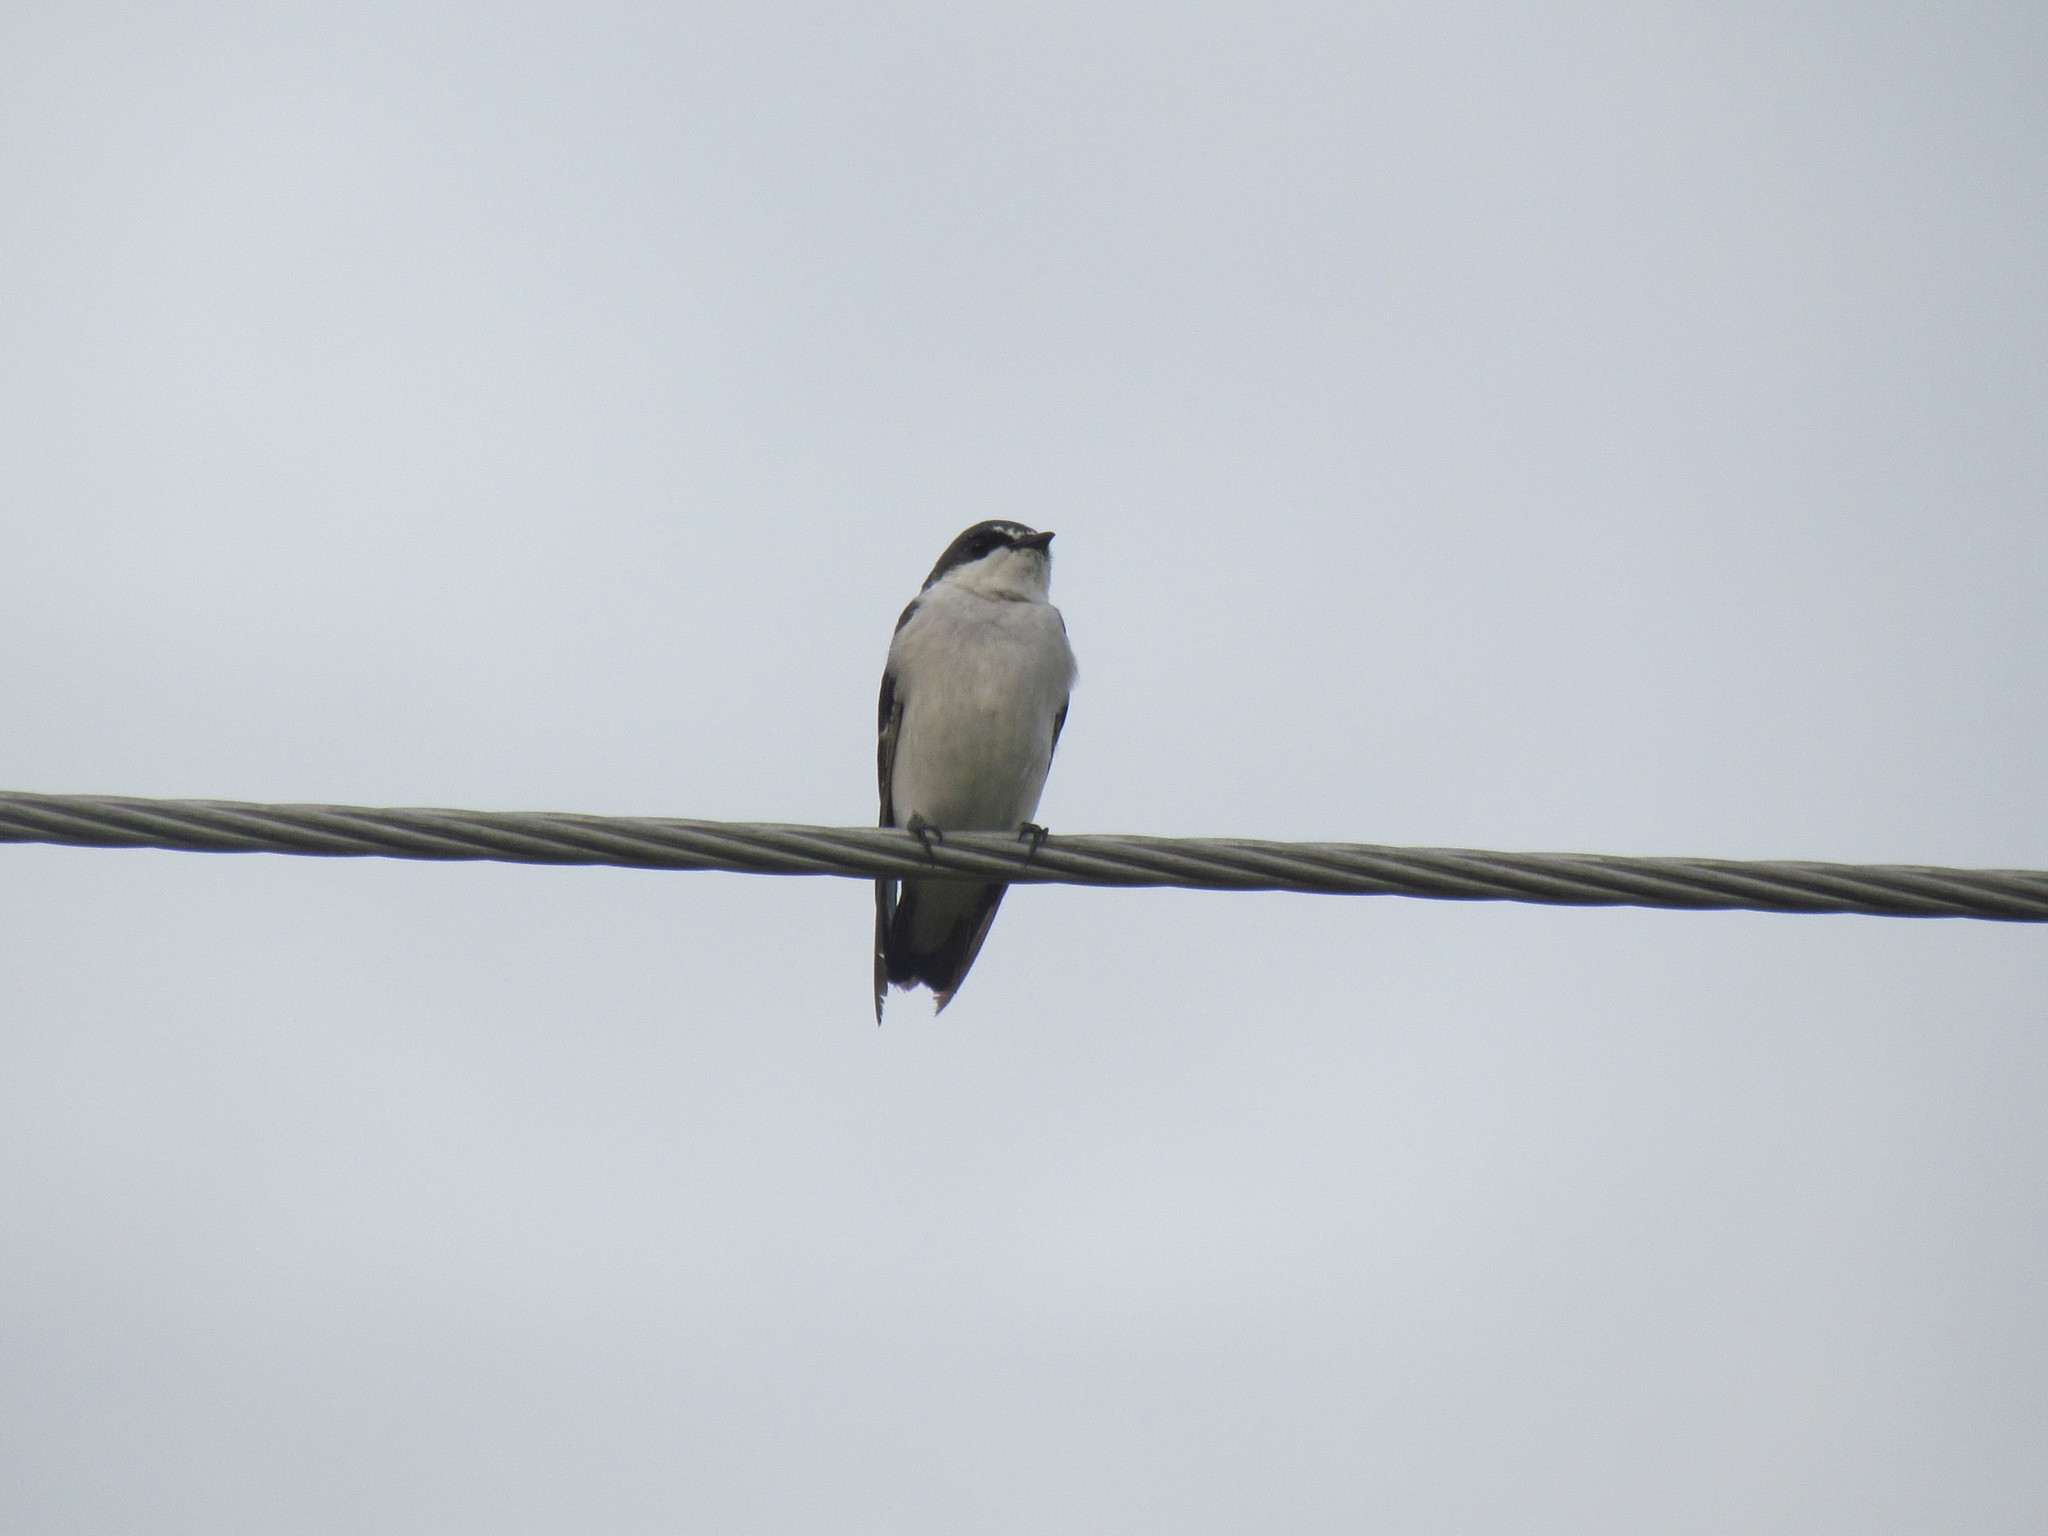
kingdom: Animalia
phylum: Chordata
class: Aves
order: Passeriformes
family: Hirundinidae
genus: Tachycineta
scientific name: Tachycineta albilinea
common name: Mangrove swallow
